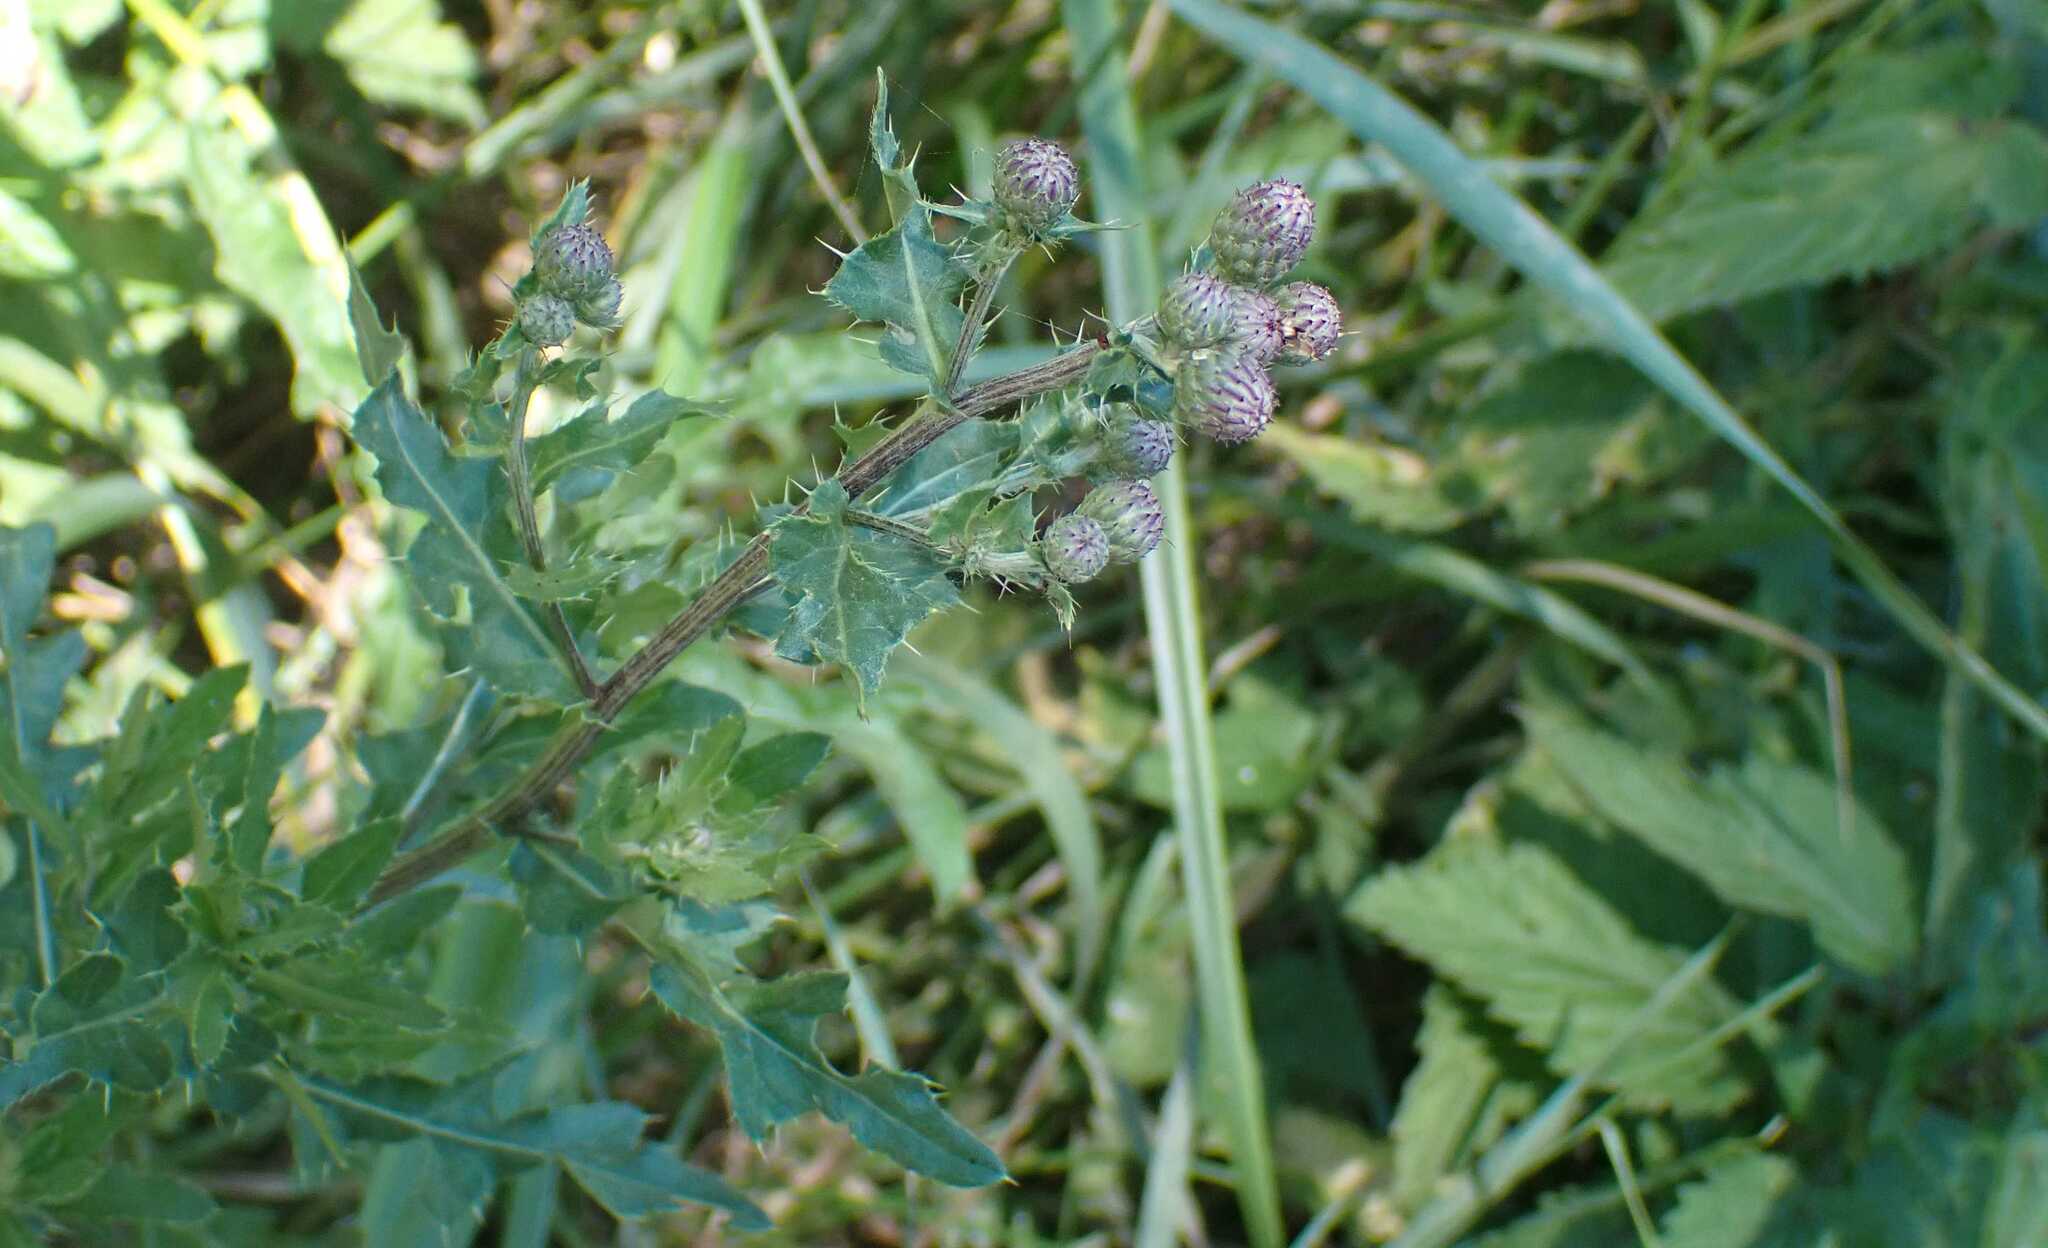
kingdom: Animalia
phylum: Arthropoda
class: Insecta
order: Diptera
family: Tephritidae
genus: Xyphosia
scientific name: Xyphosia miliaria
